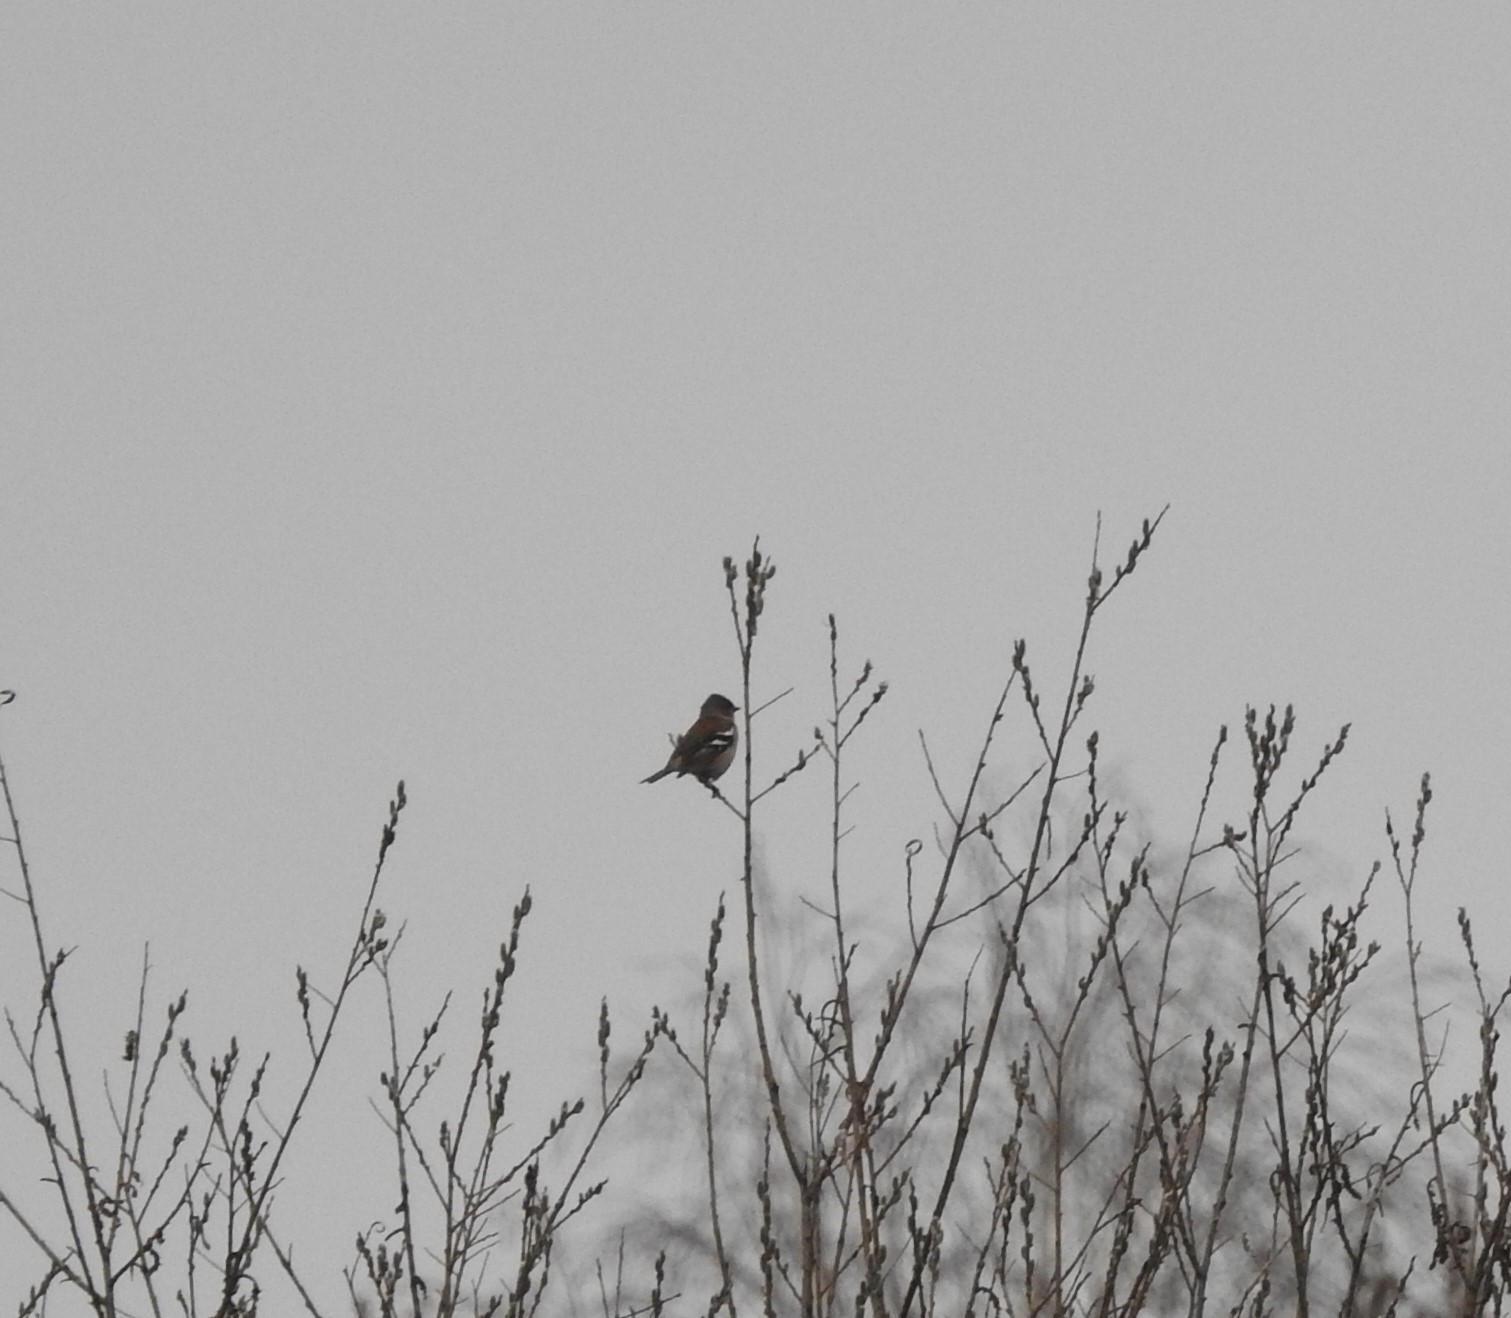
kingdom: Animalia
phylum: Chordata
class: Aves
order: Passeriformes
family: Fringillidae
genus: Fringilla
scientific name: Fringilla coelebs
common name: Common chaffinch
